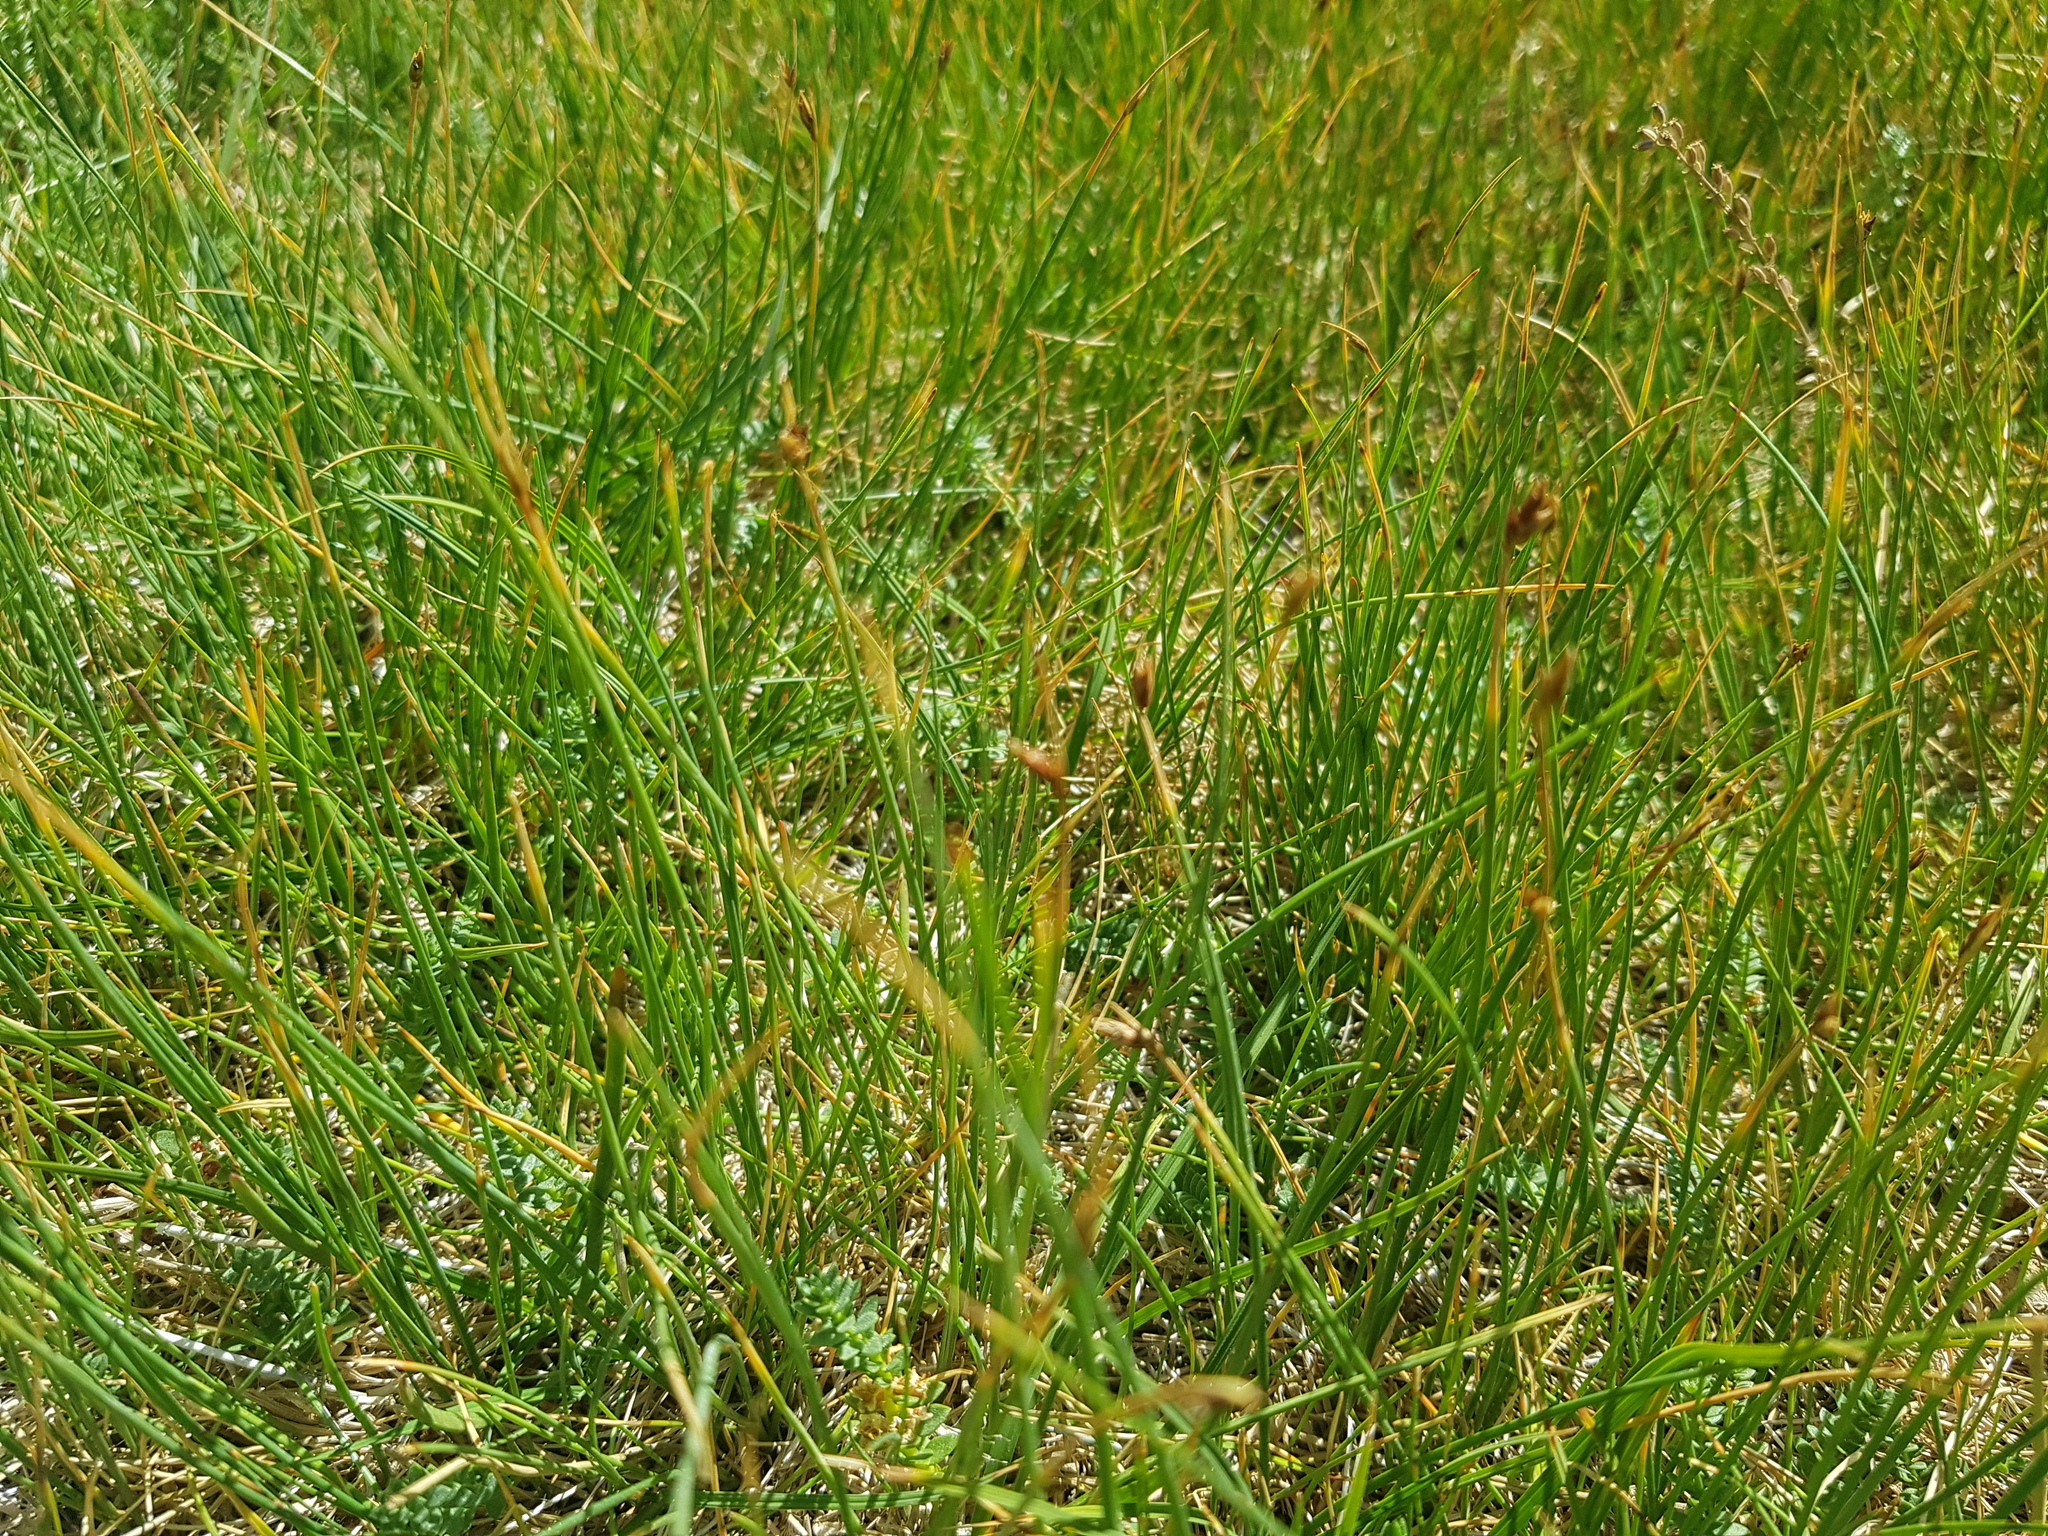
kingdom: Plantae
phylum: Tracheophyta
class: Liliopsida
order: Poales
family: Cyperaceae
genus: Carex
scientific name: Carex stenophylla
